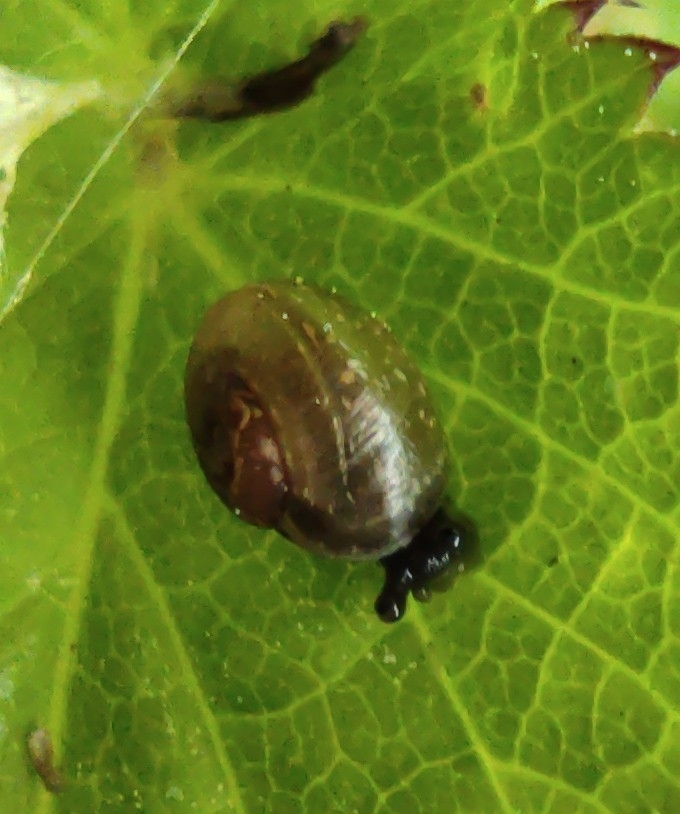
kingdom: Animalia
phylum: Mollusca
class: Gastropoda
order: Stylommatophora
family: Helicidae
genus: Arianta
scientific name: Arianta arbustorum
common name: Copse snail
